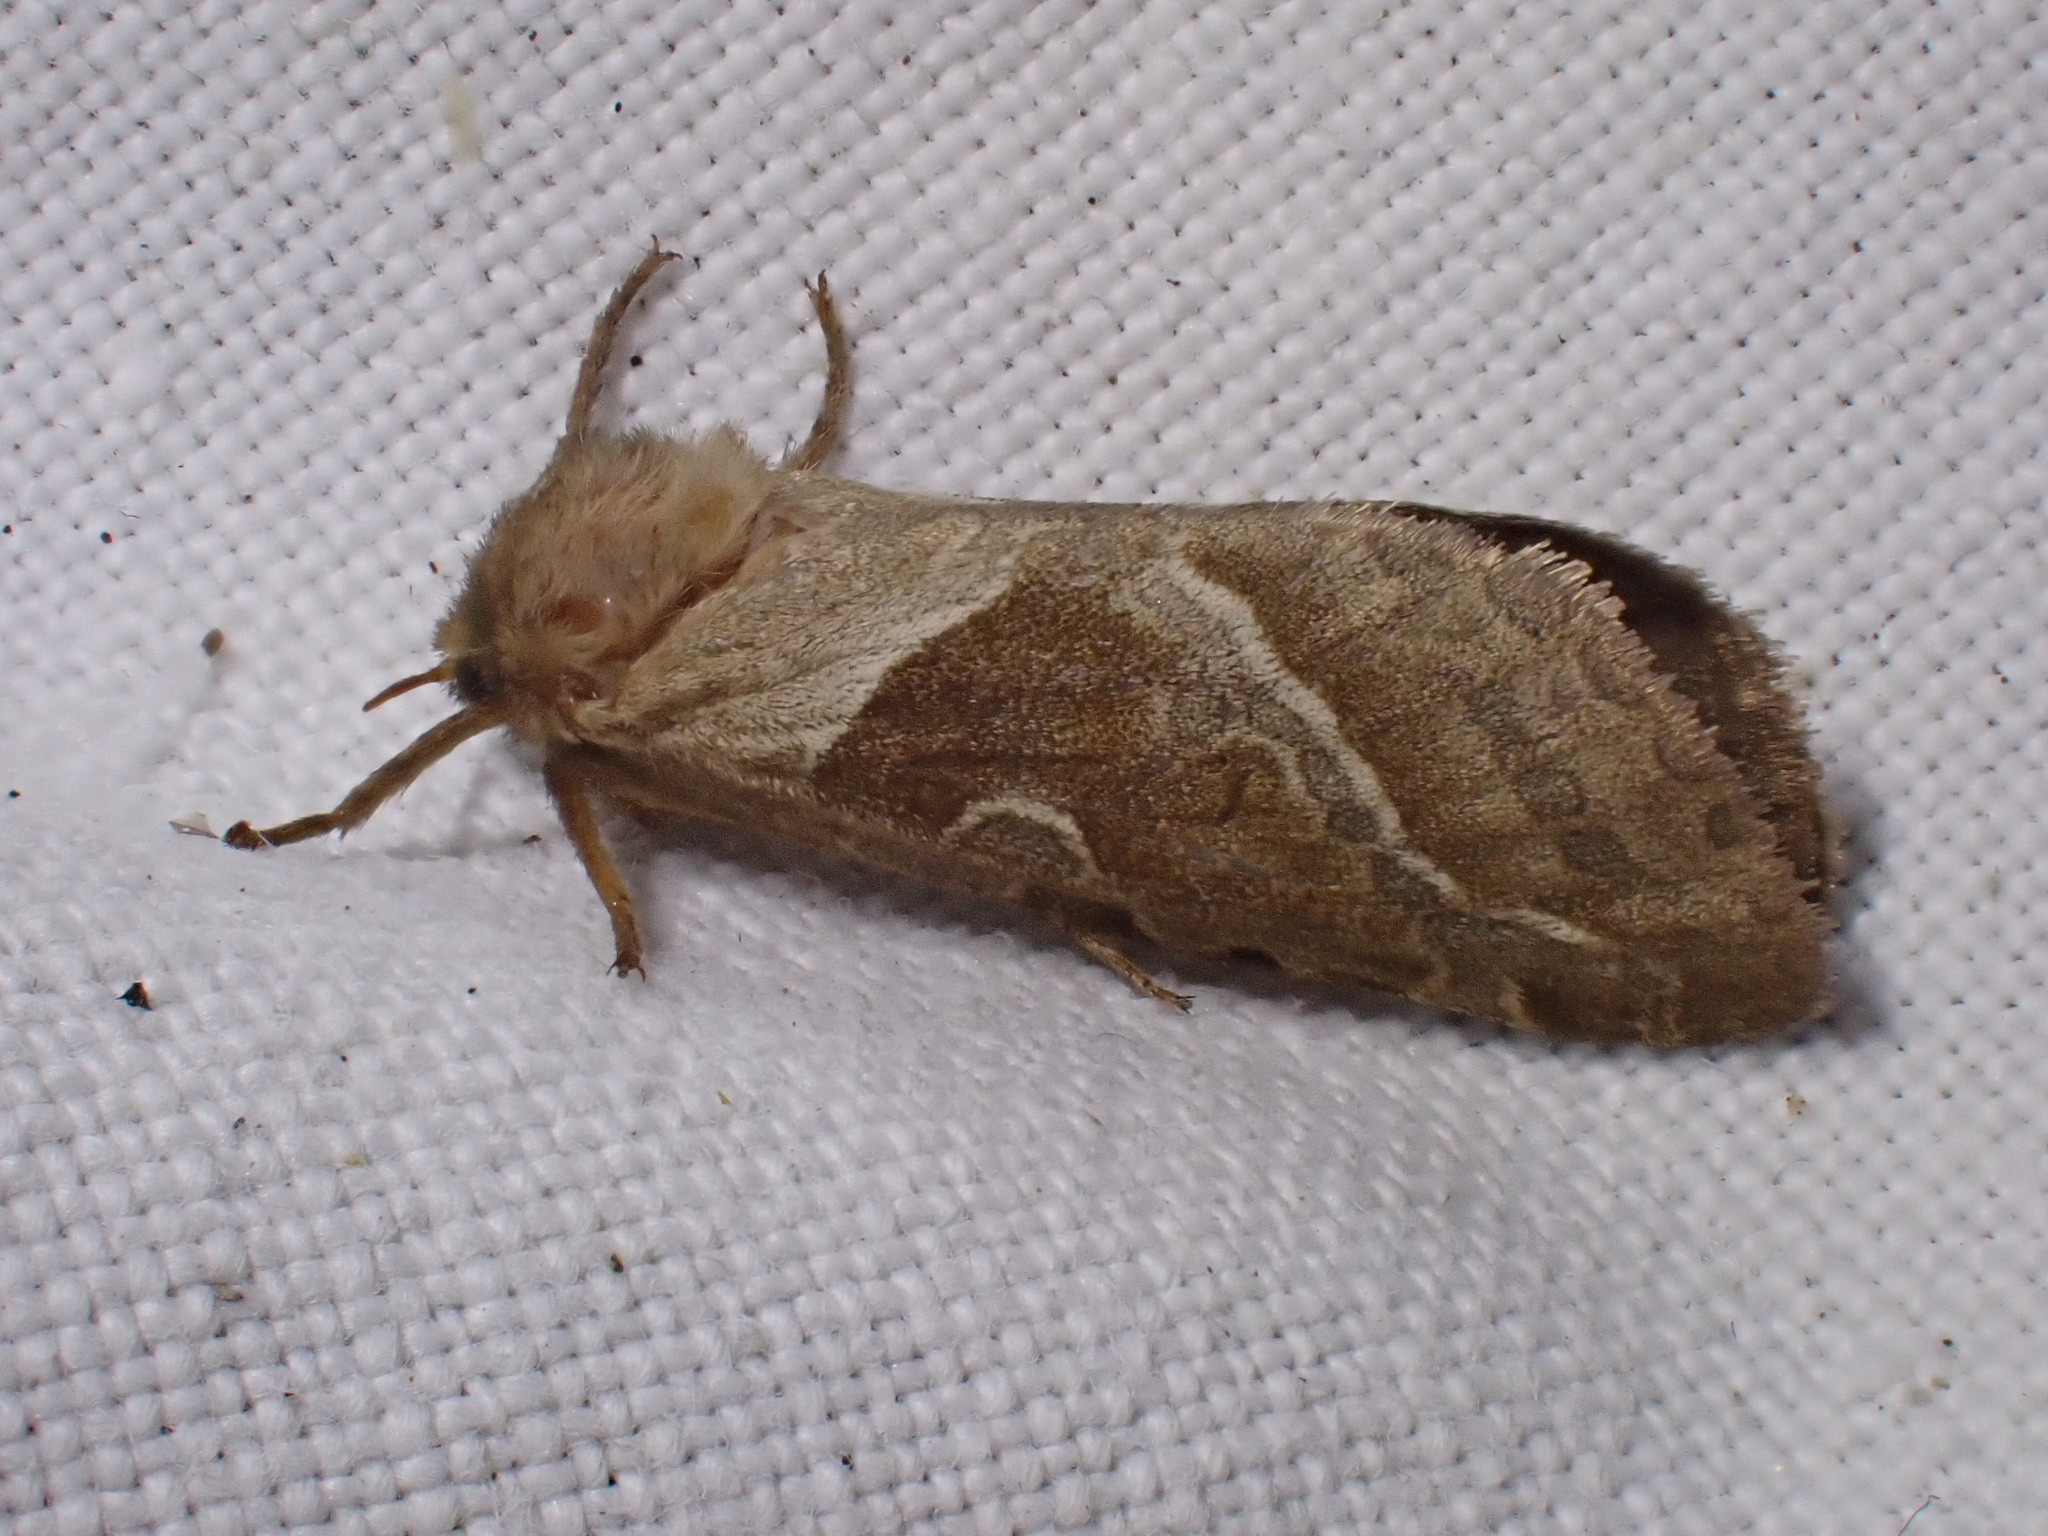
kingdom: Animalia
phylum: Arthropoda
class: Insecta
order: Lepidoptera
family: Hepialidae
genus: Triodia
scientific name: Triodia sylvina
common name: Orange swift
